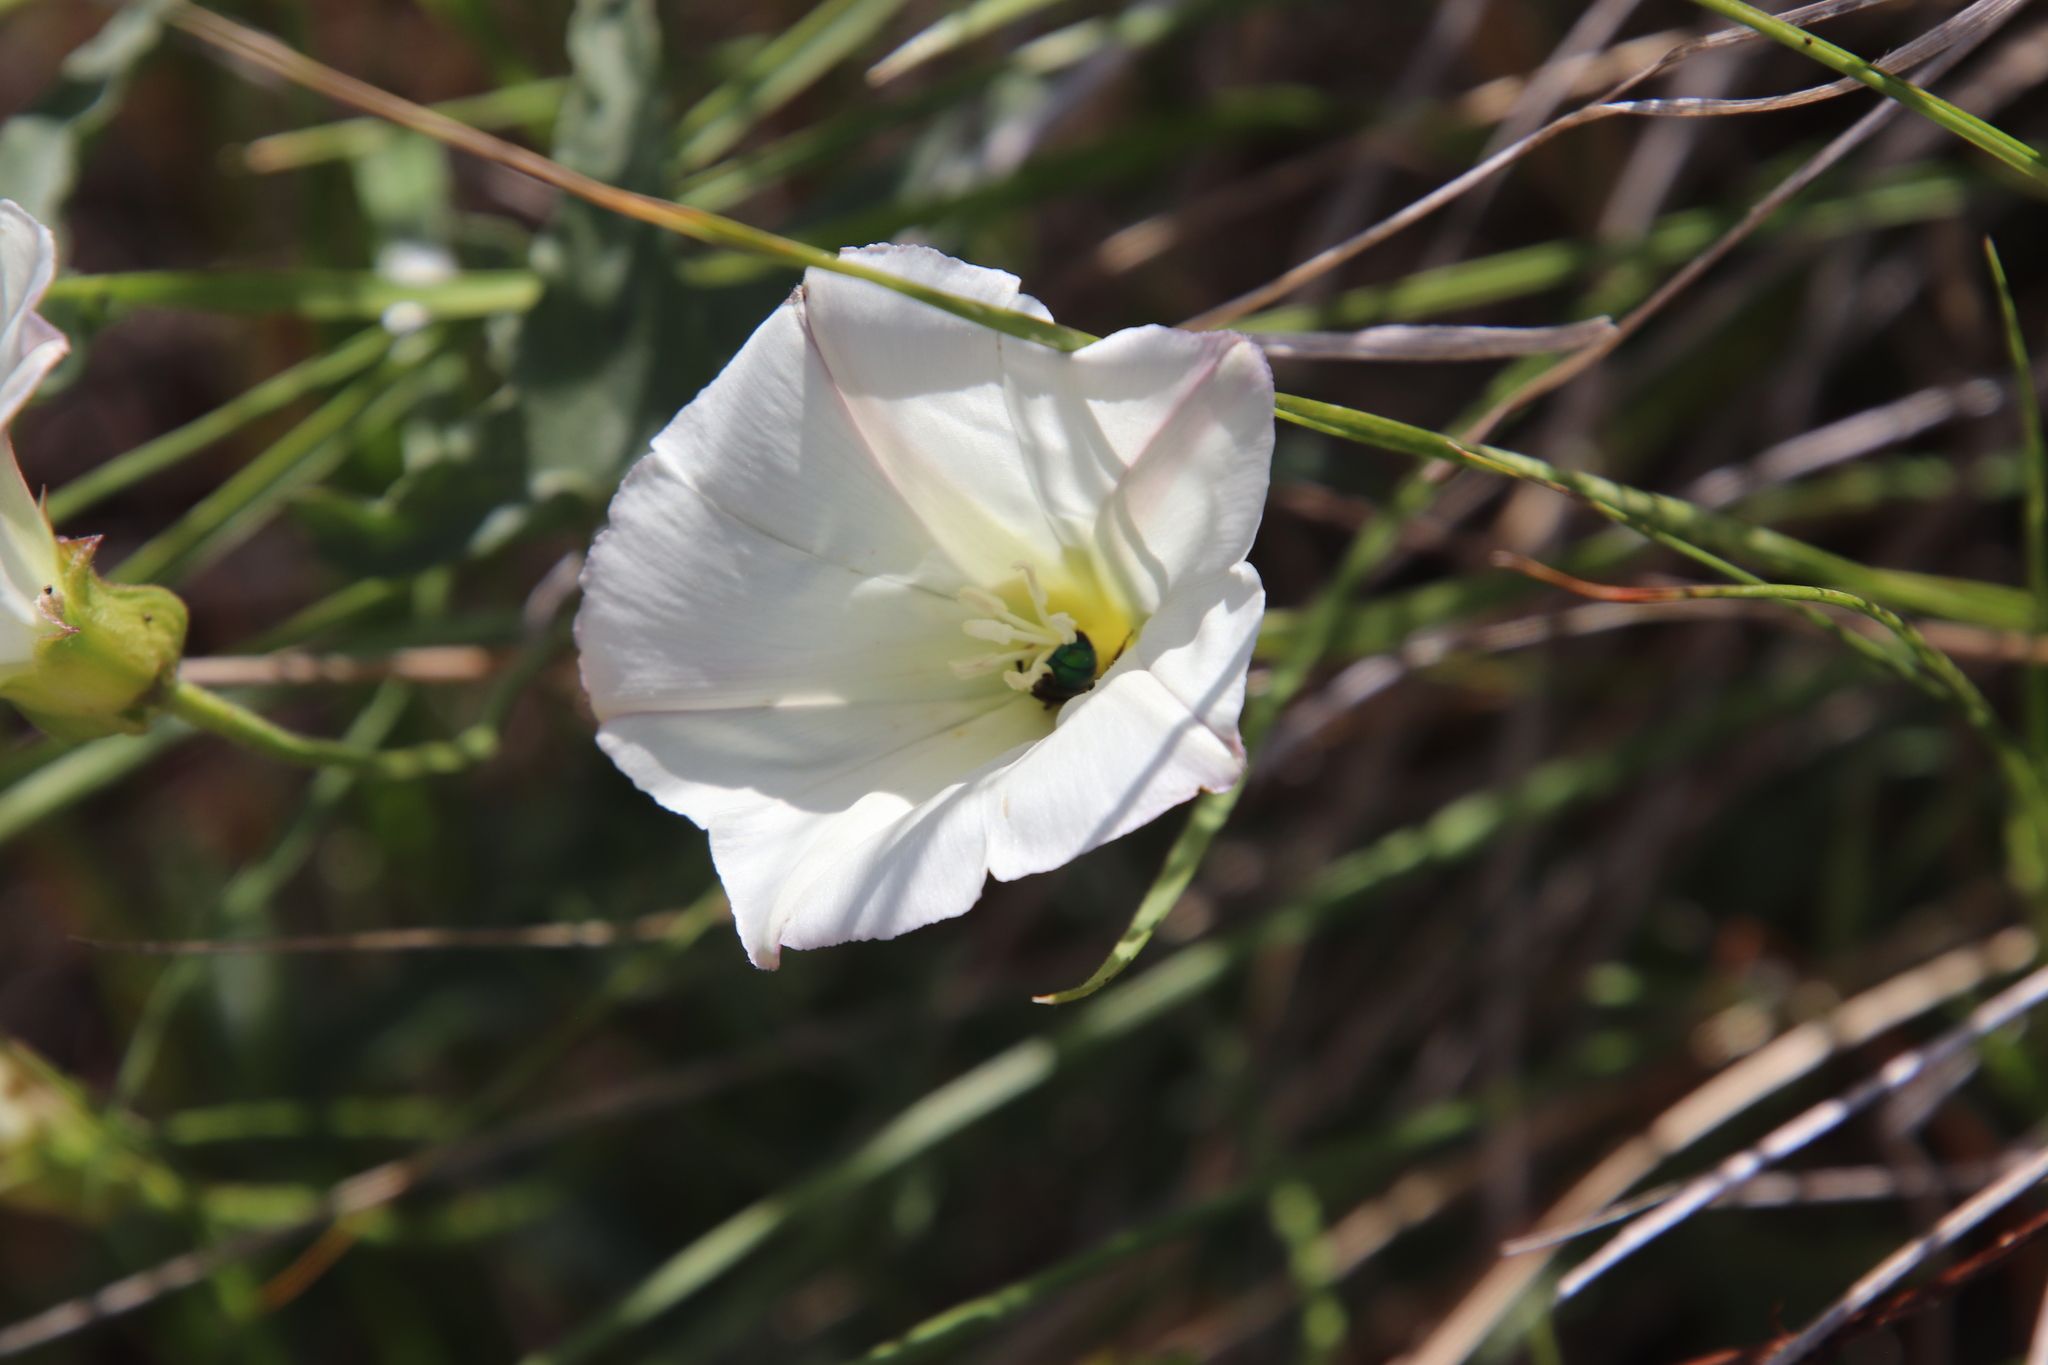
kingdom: Plantae
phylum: Tracheophyta
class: Magnoliopsida
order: Solanales
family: Convolvulaceae
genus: Calystegia
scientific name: Calystegia macrostegia
